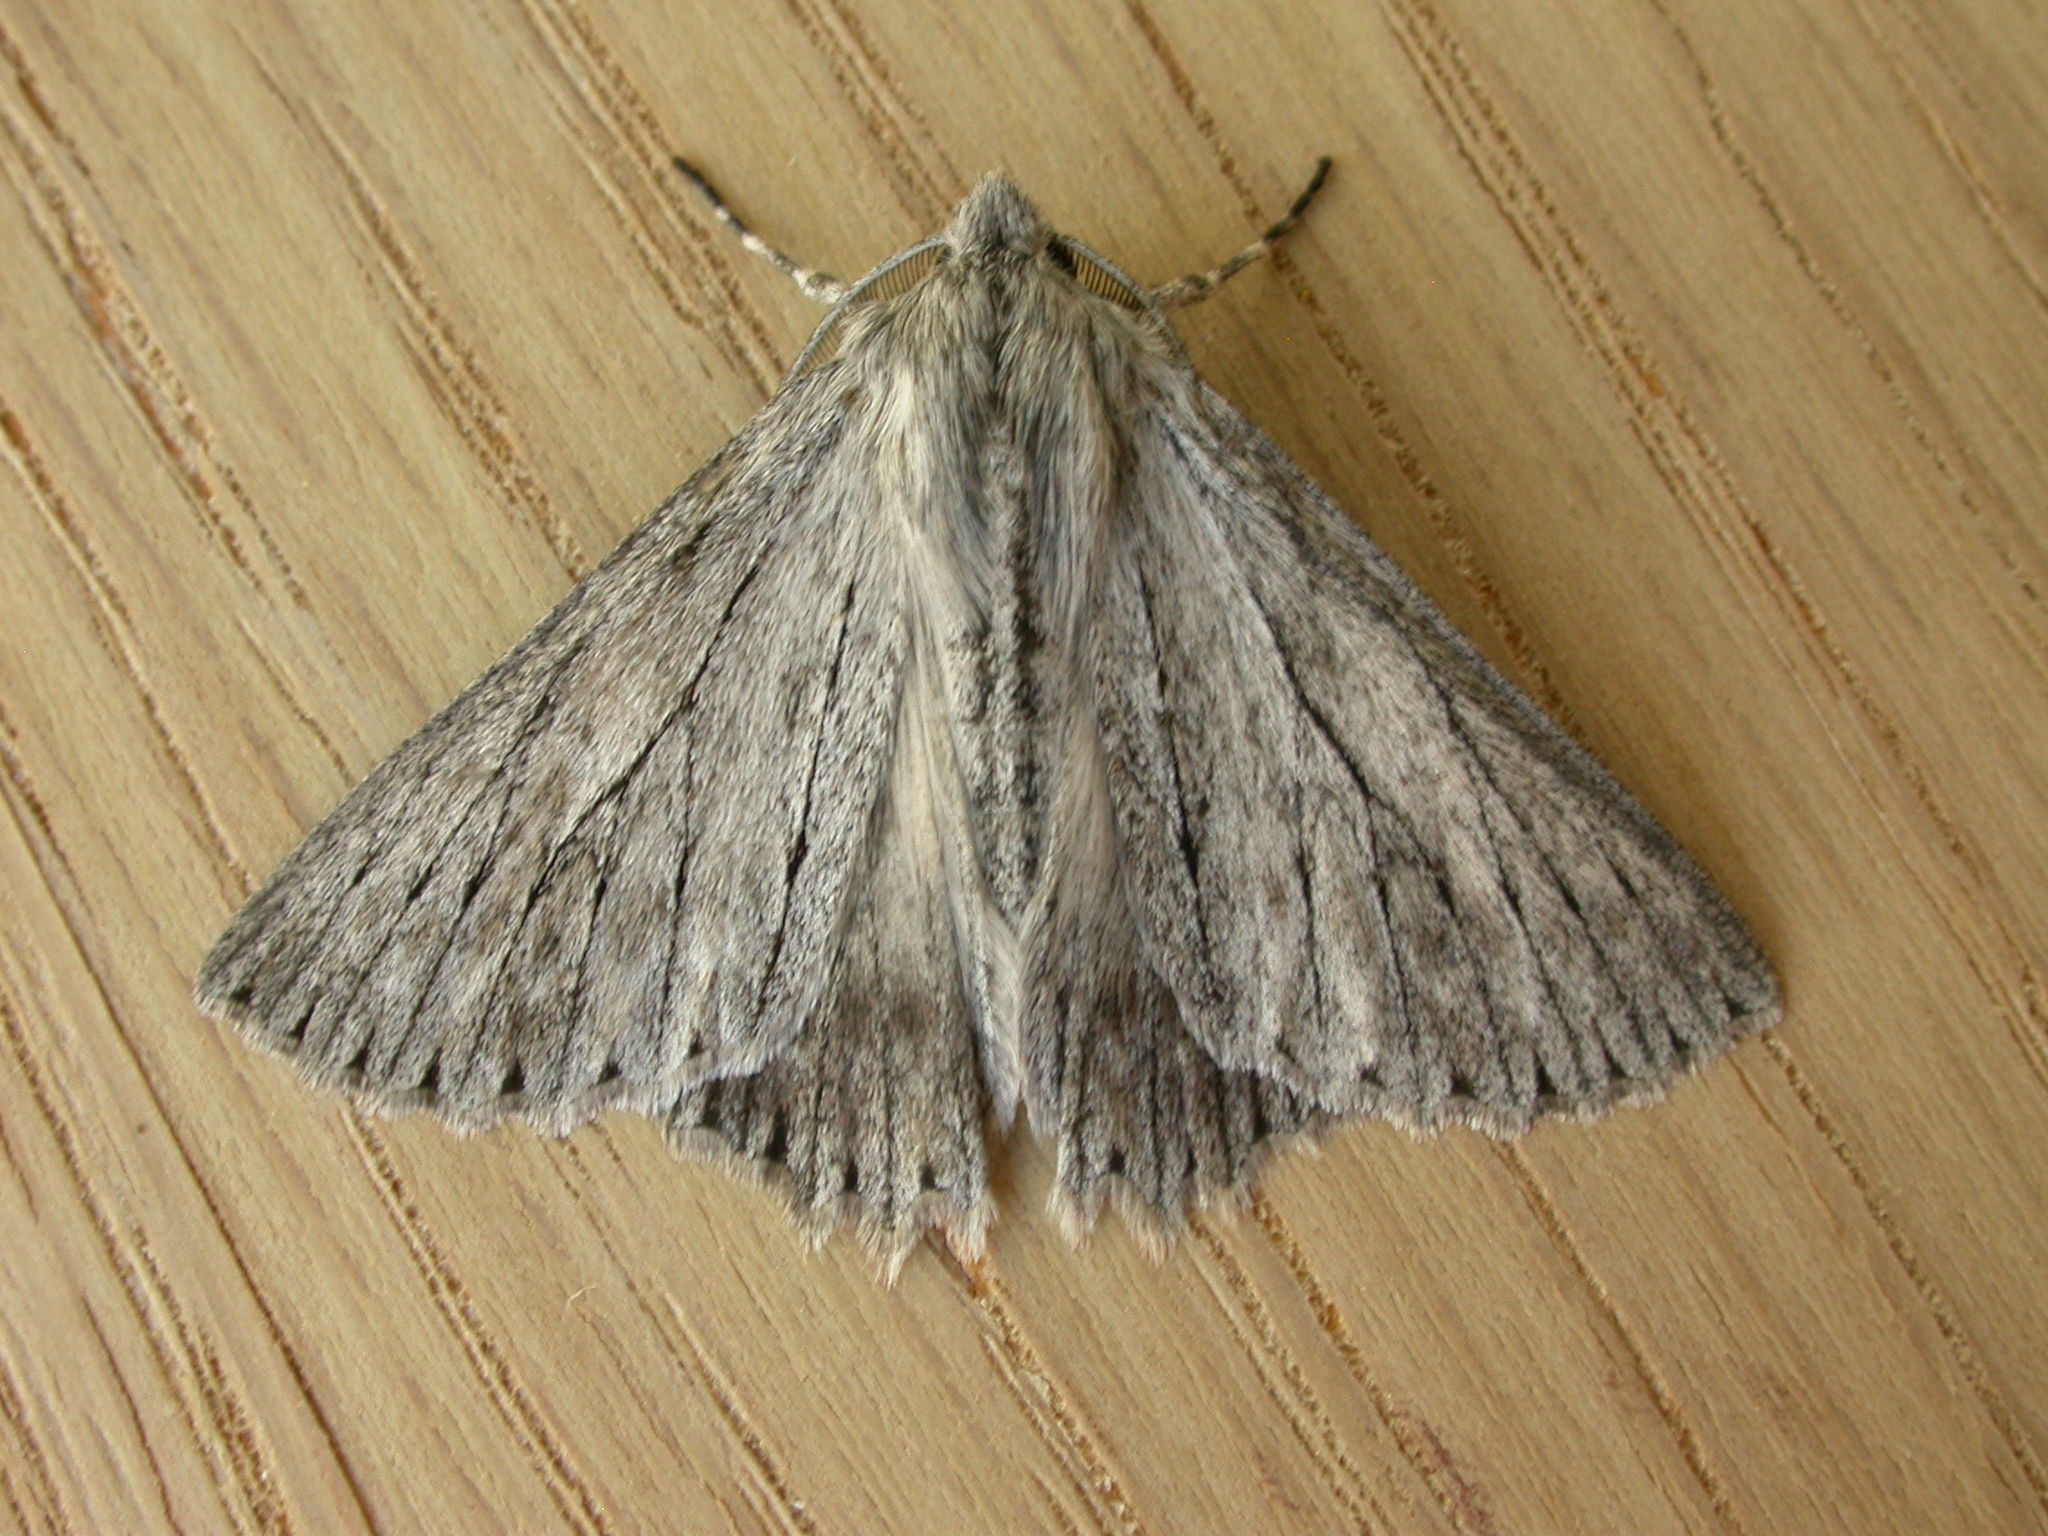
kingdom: Animalia
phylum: Arthropoda
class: Insecta
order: Lepidoptera
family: Geometridae
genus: Cyneoterpna
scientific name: Cyneoterpna wilsoni
